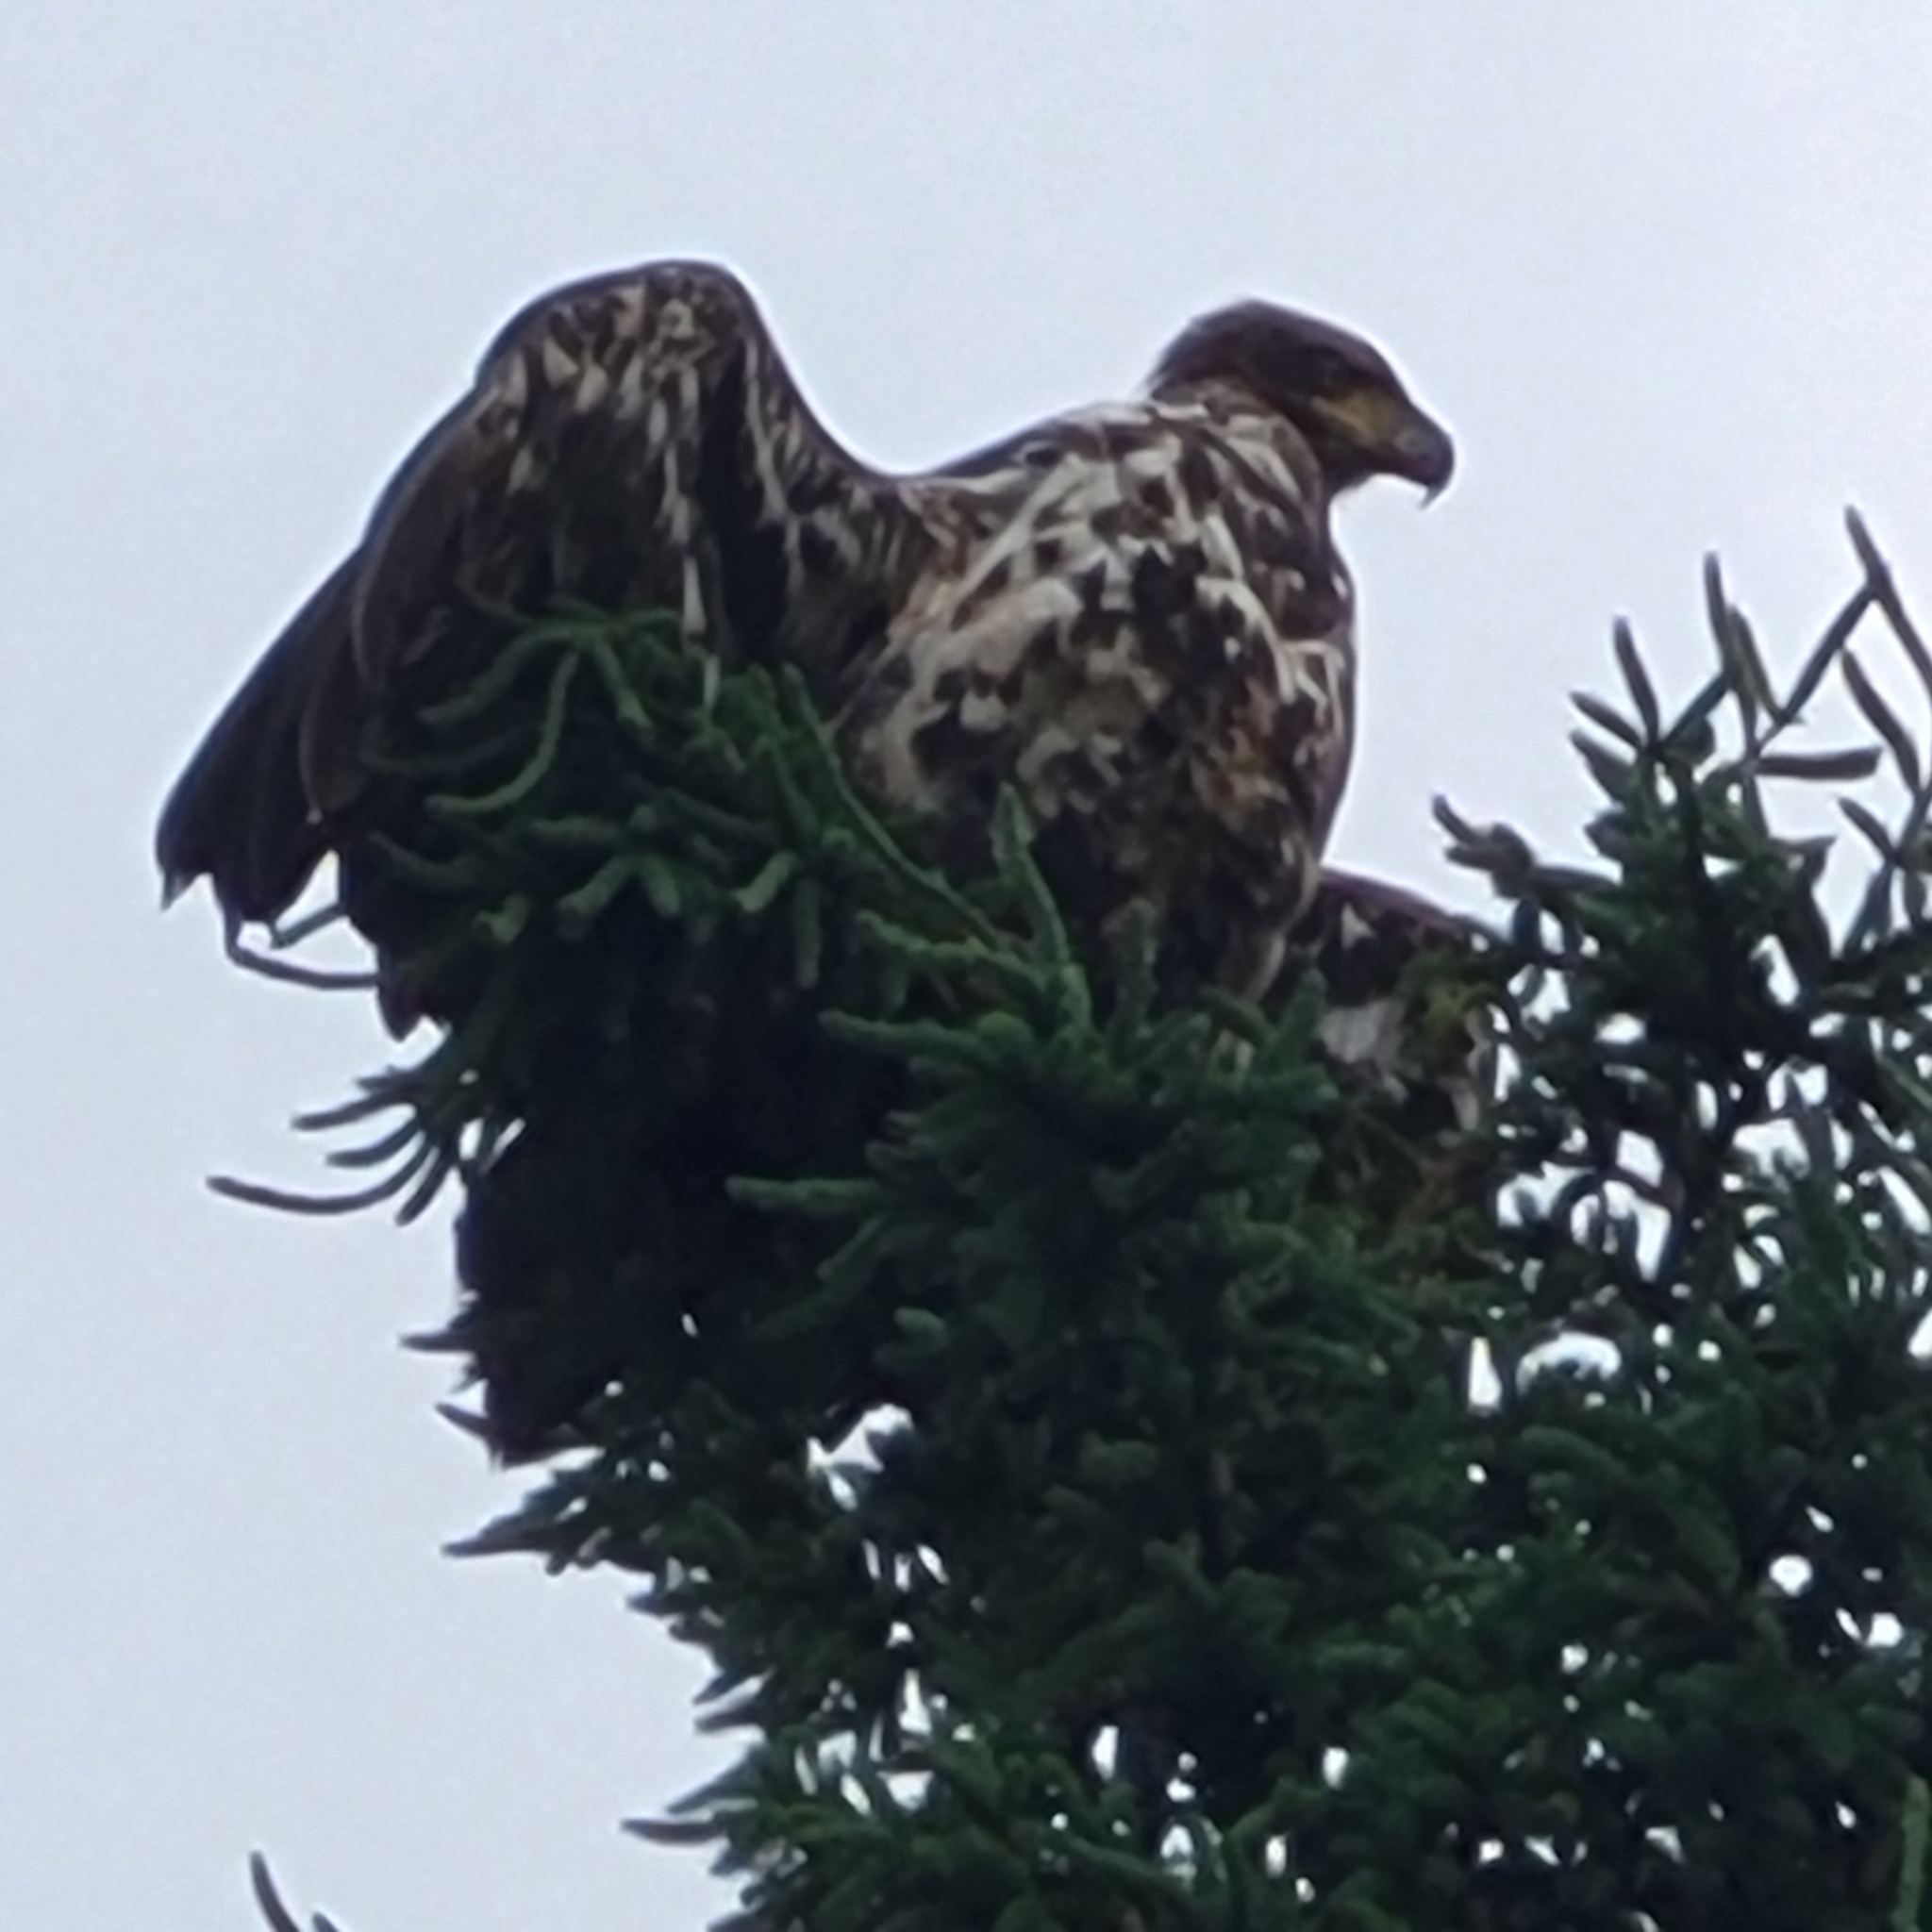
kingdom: Animalia
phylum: Chordata
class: Aves
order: Accipitriformes
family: Accipitridae
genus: Haliaeetus
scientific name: Haliaeetus leucocephalus
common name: Bald eagle
